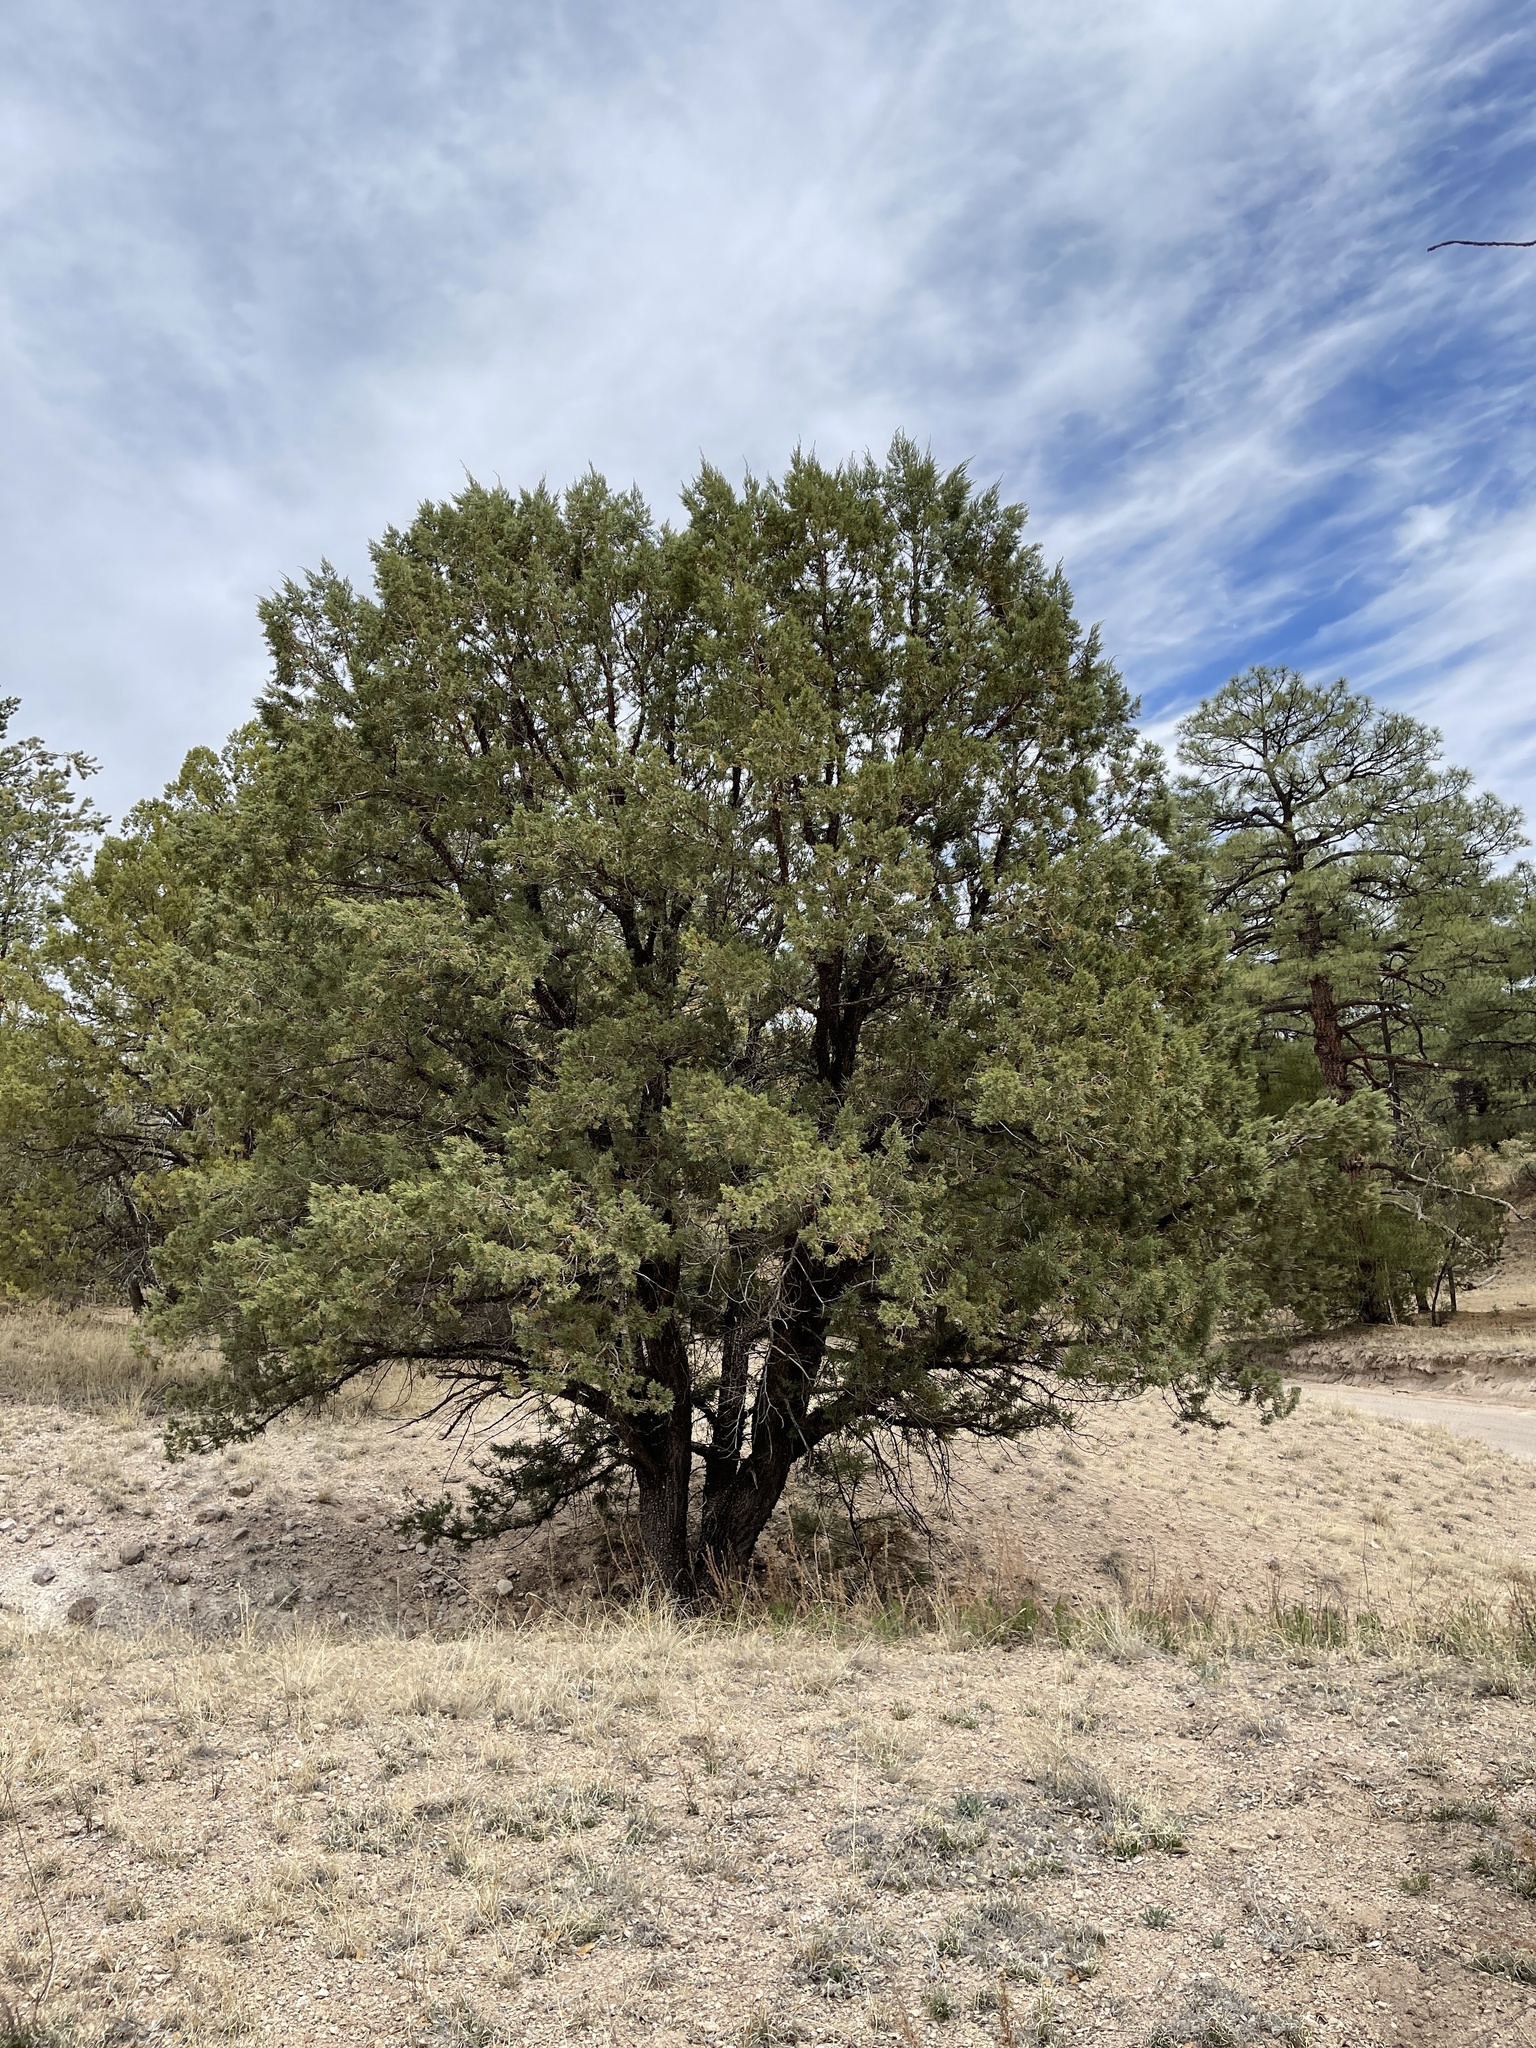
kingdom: Plantae
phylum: Tracheophyta
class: Pinopsida
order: Pinales
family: Cupressaceae
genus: Juniperus
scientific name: Juniperus deppeana
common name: Alligator juniper
